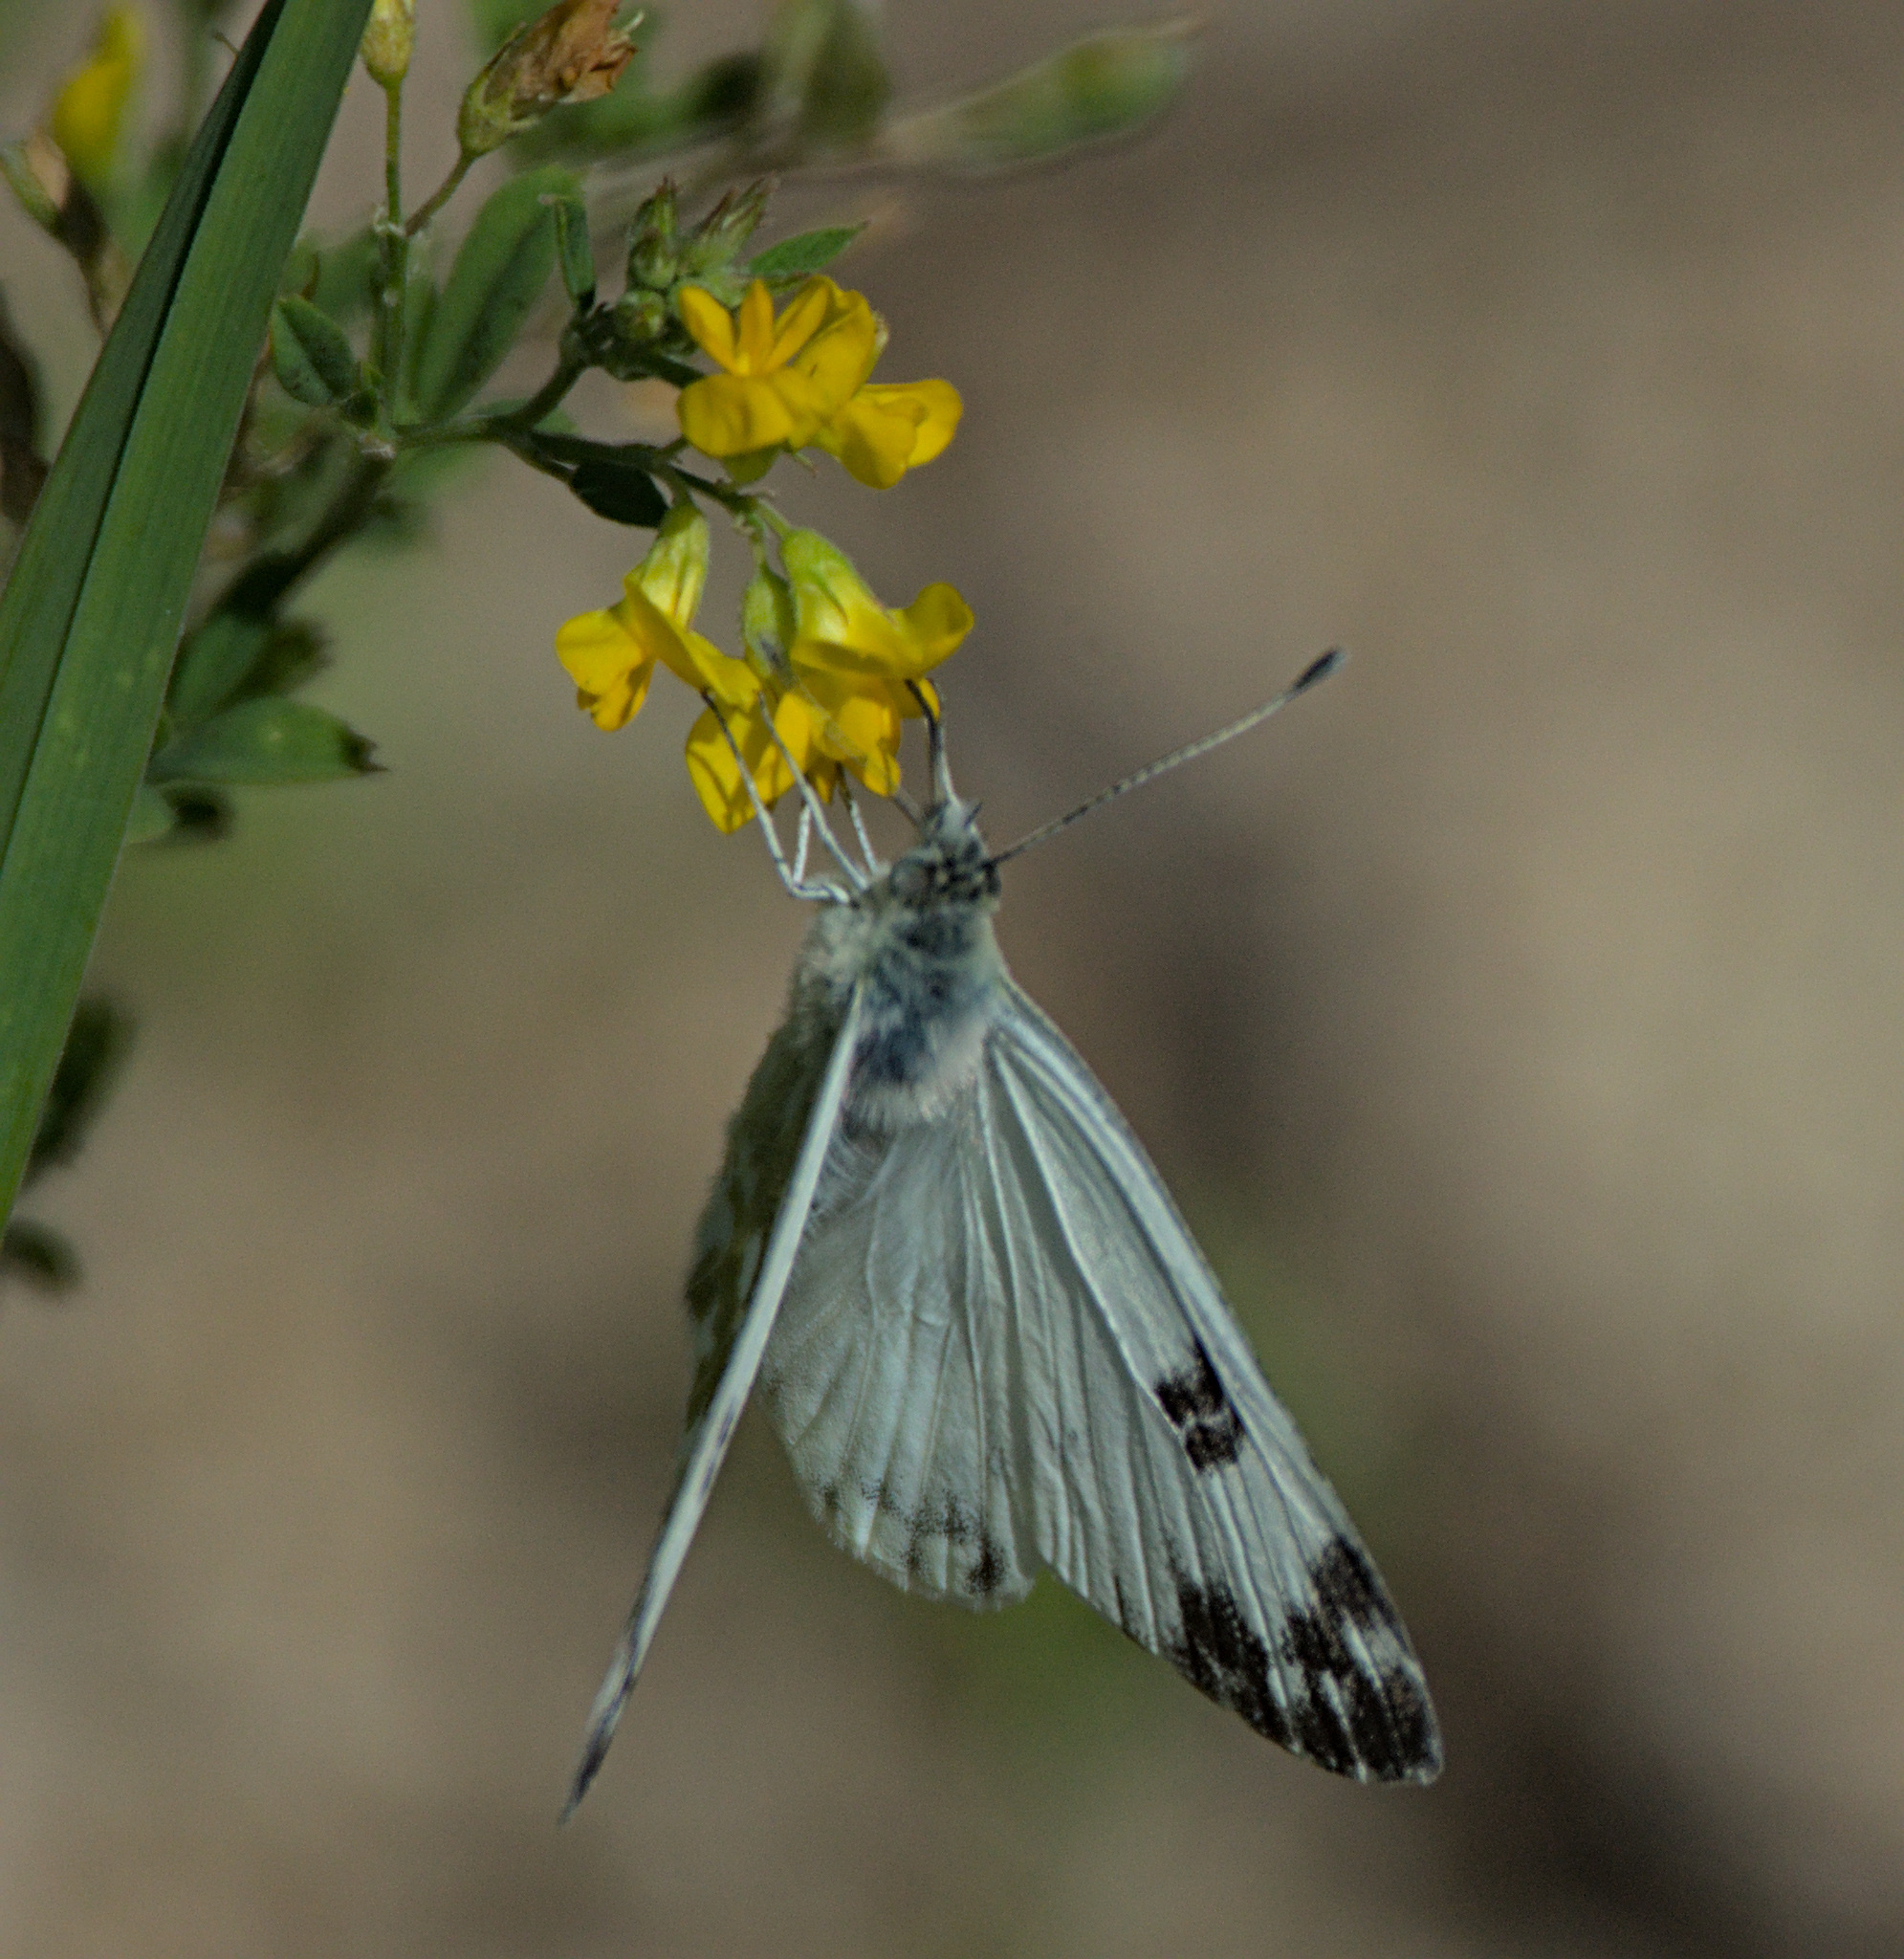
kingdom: Animalia
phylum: Arthropoda
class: Insecta
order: Lepidoptera
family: Pieridae
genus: Pontia
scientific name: Pontia edusa
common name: Eastern bath white
